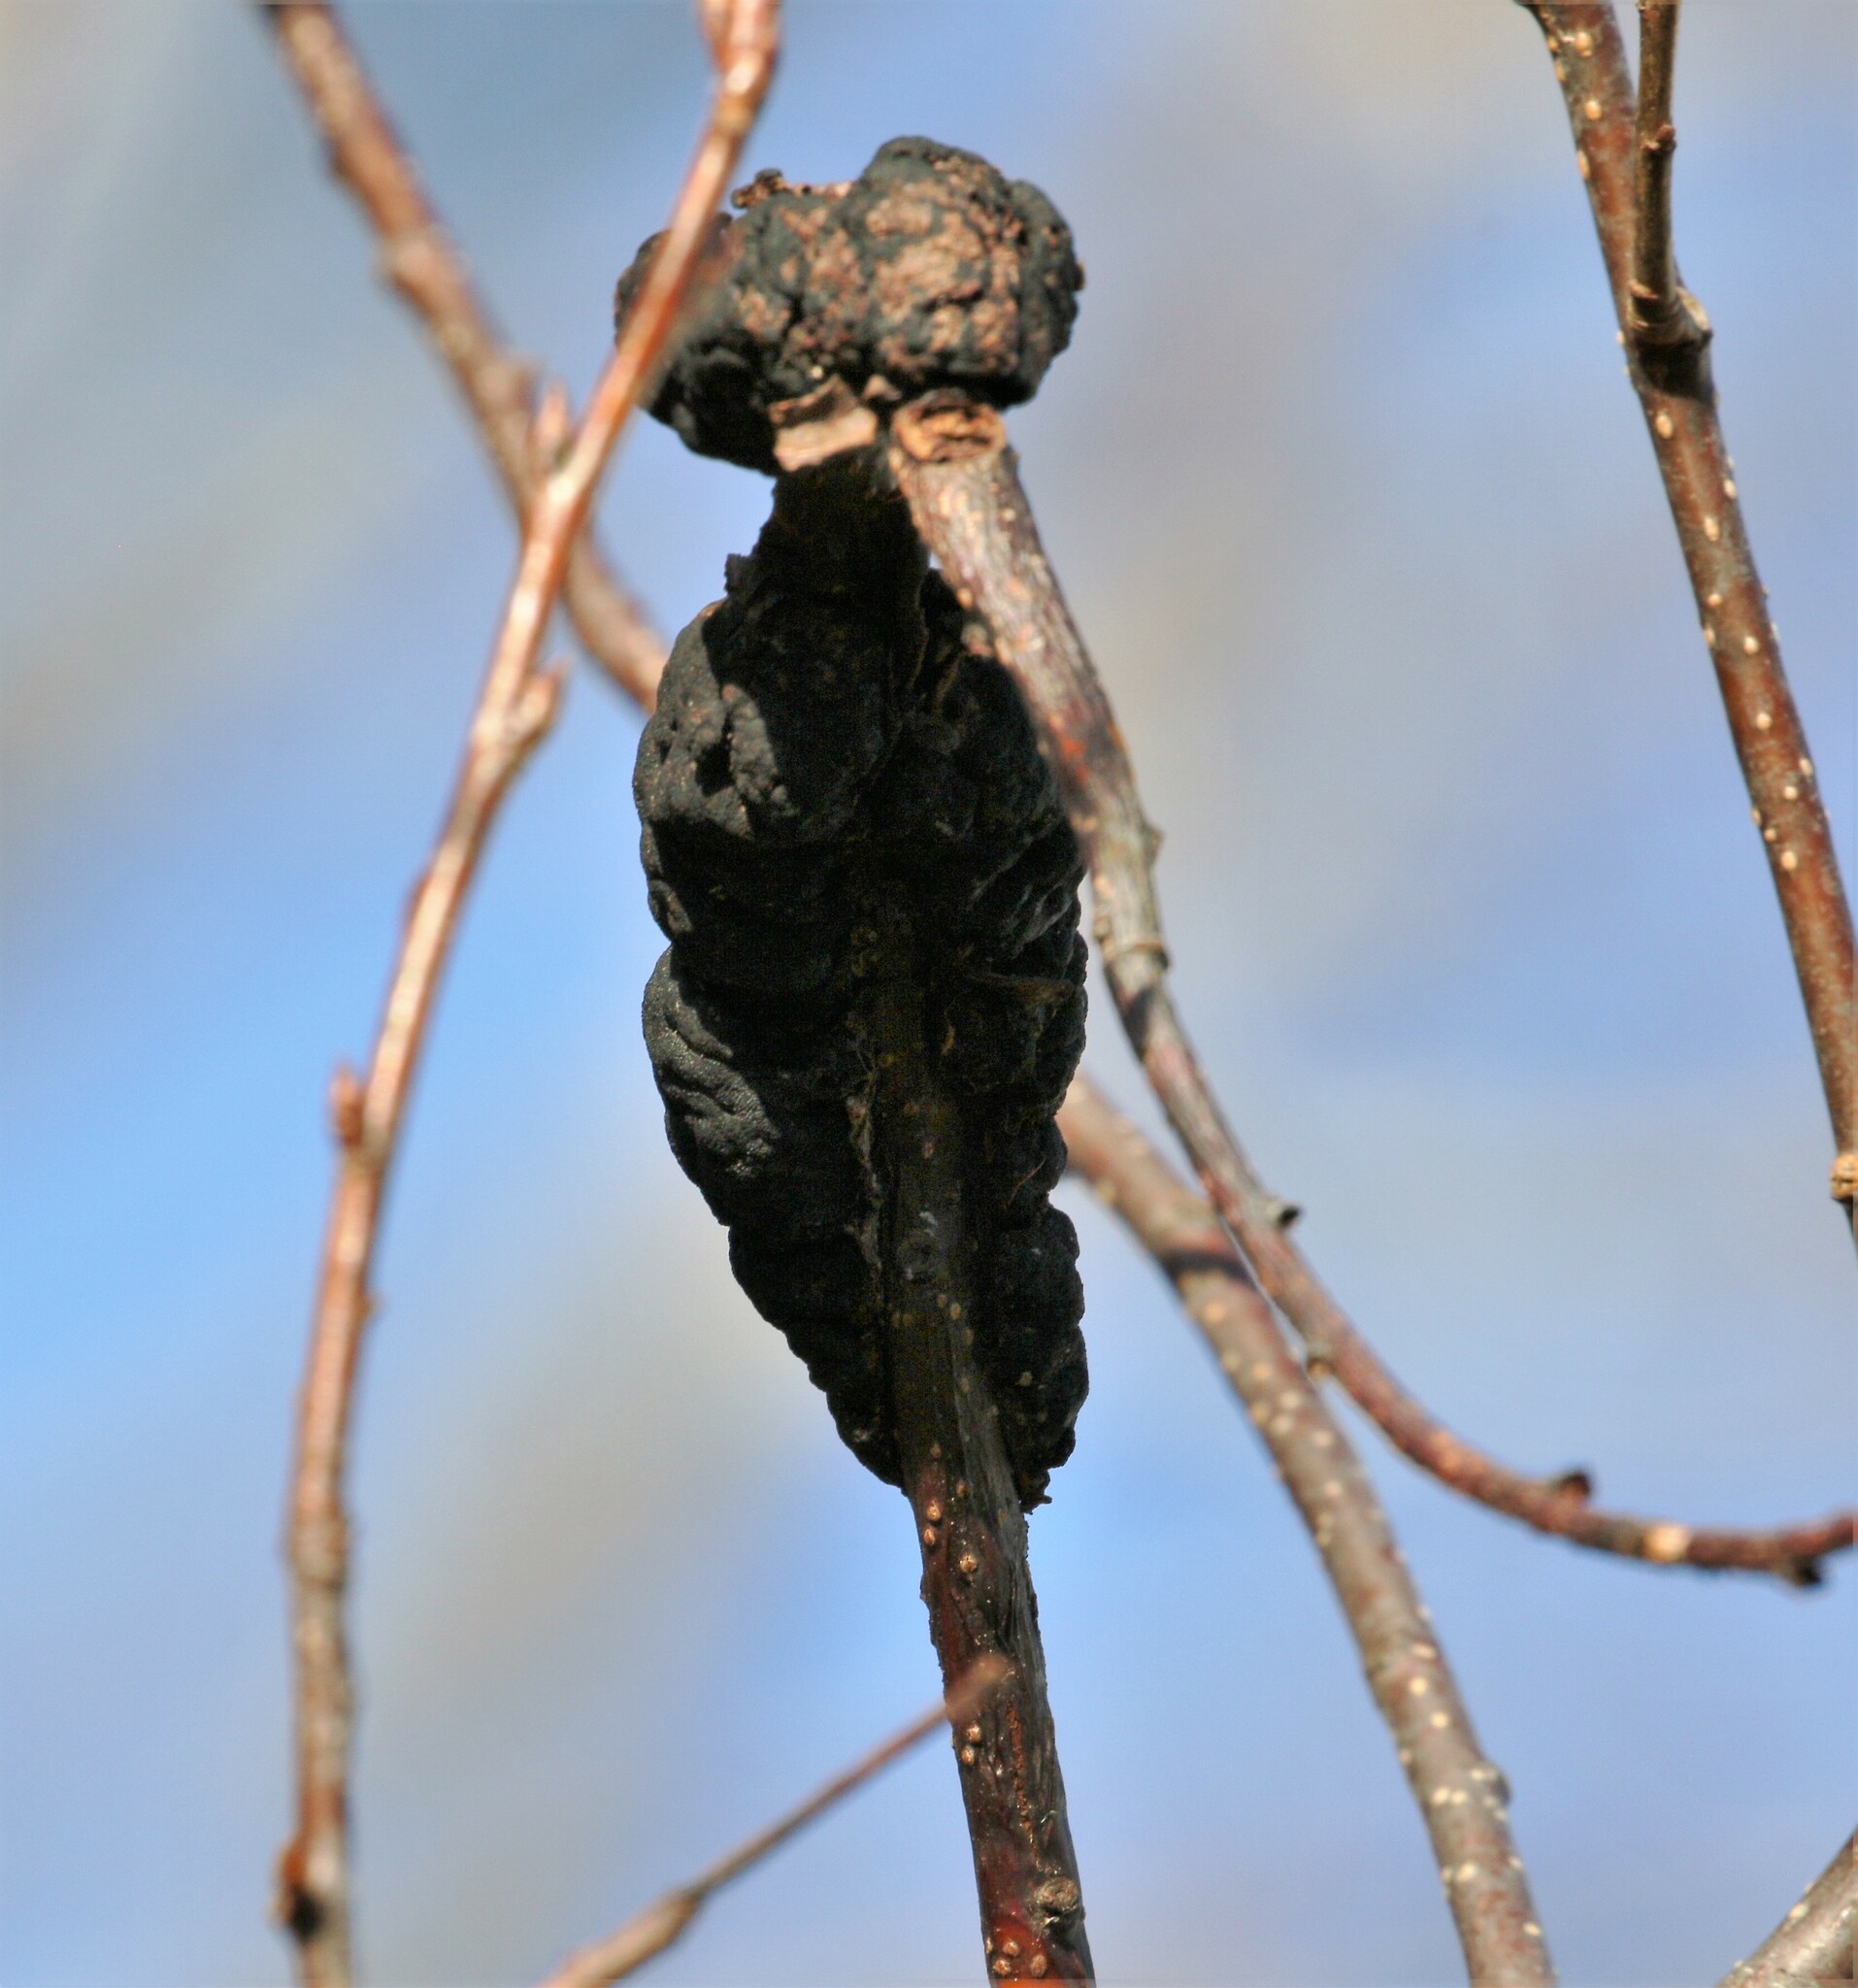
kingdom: Fungi
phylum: Ascomycota
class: Dothideomycetes
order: Venturiales
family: Venturiaceae
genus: Apiosporina
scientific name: Apiosporina morbosa
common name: Black knot
